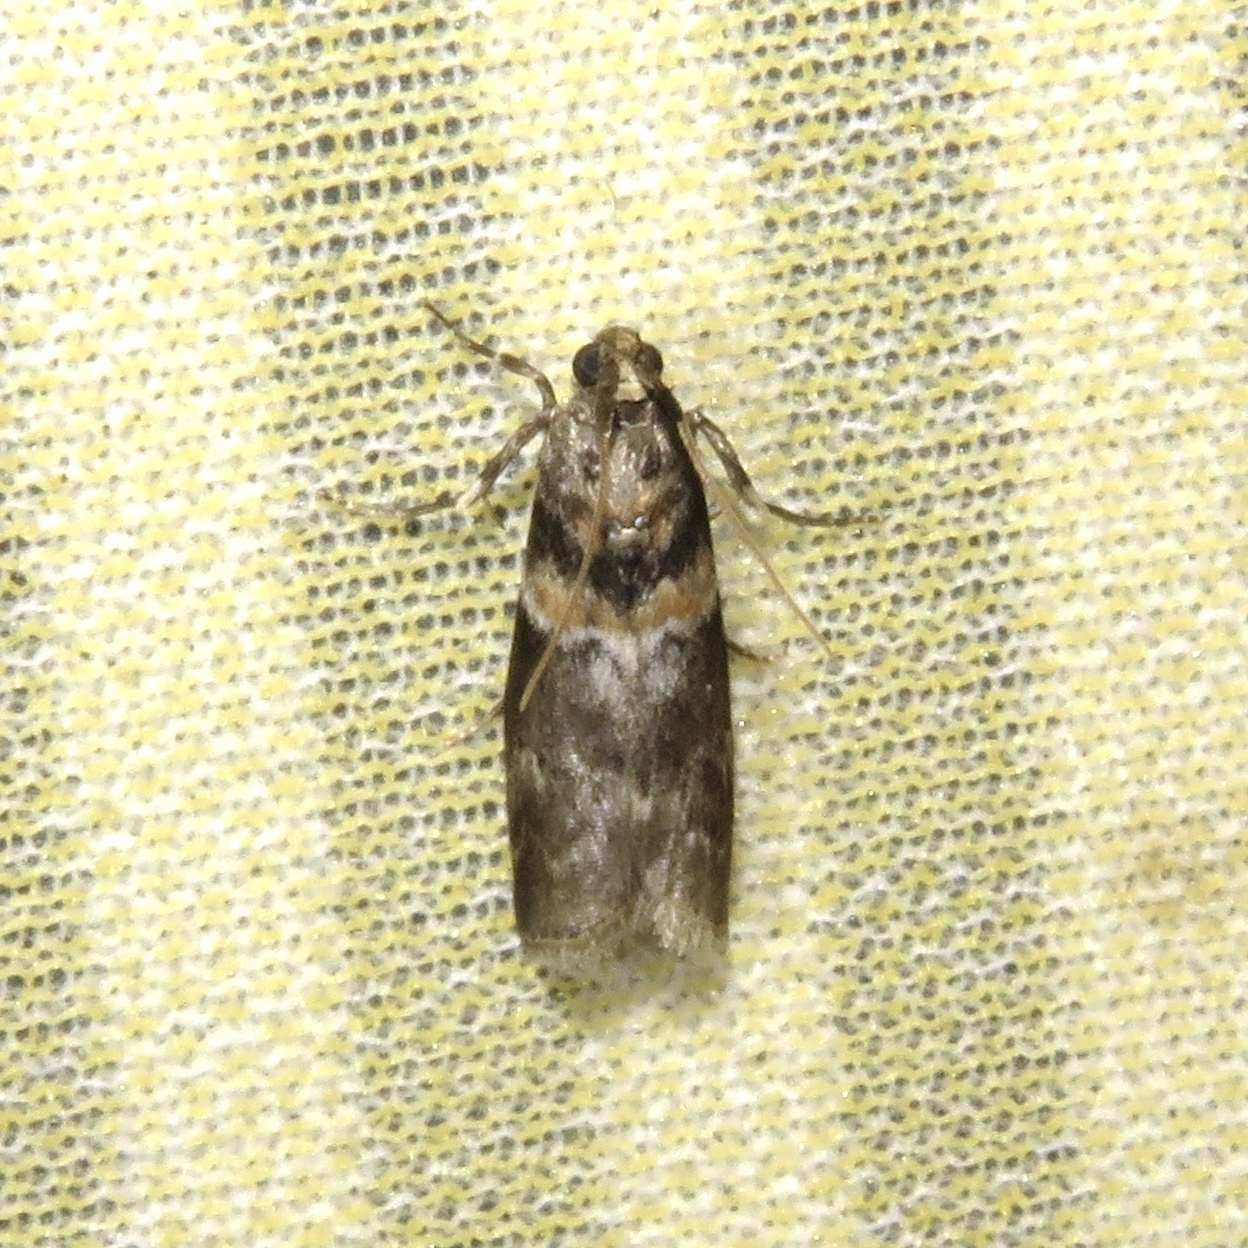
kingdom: Animalia
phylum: Arthropoda
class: Insecta
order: Lepidoptera
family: Pyralidae
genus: Salebriaria
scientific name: Salebriaria tenebrosella
